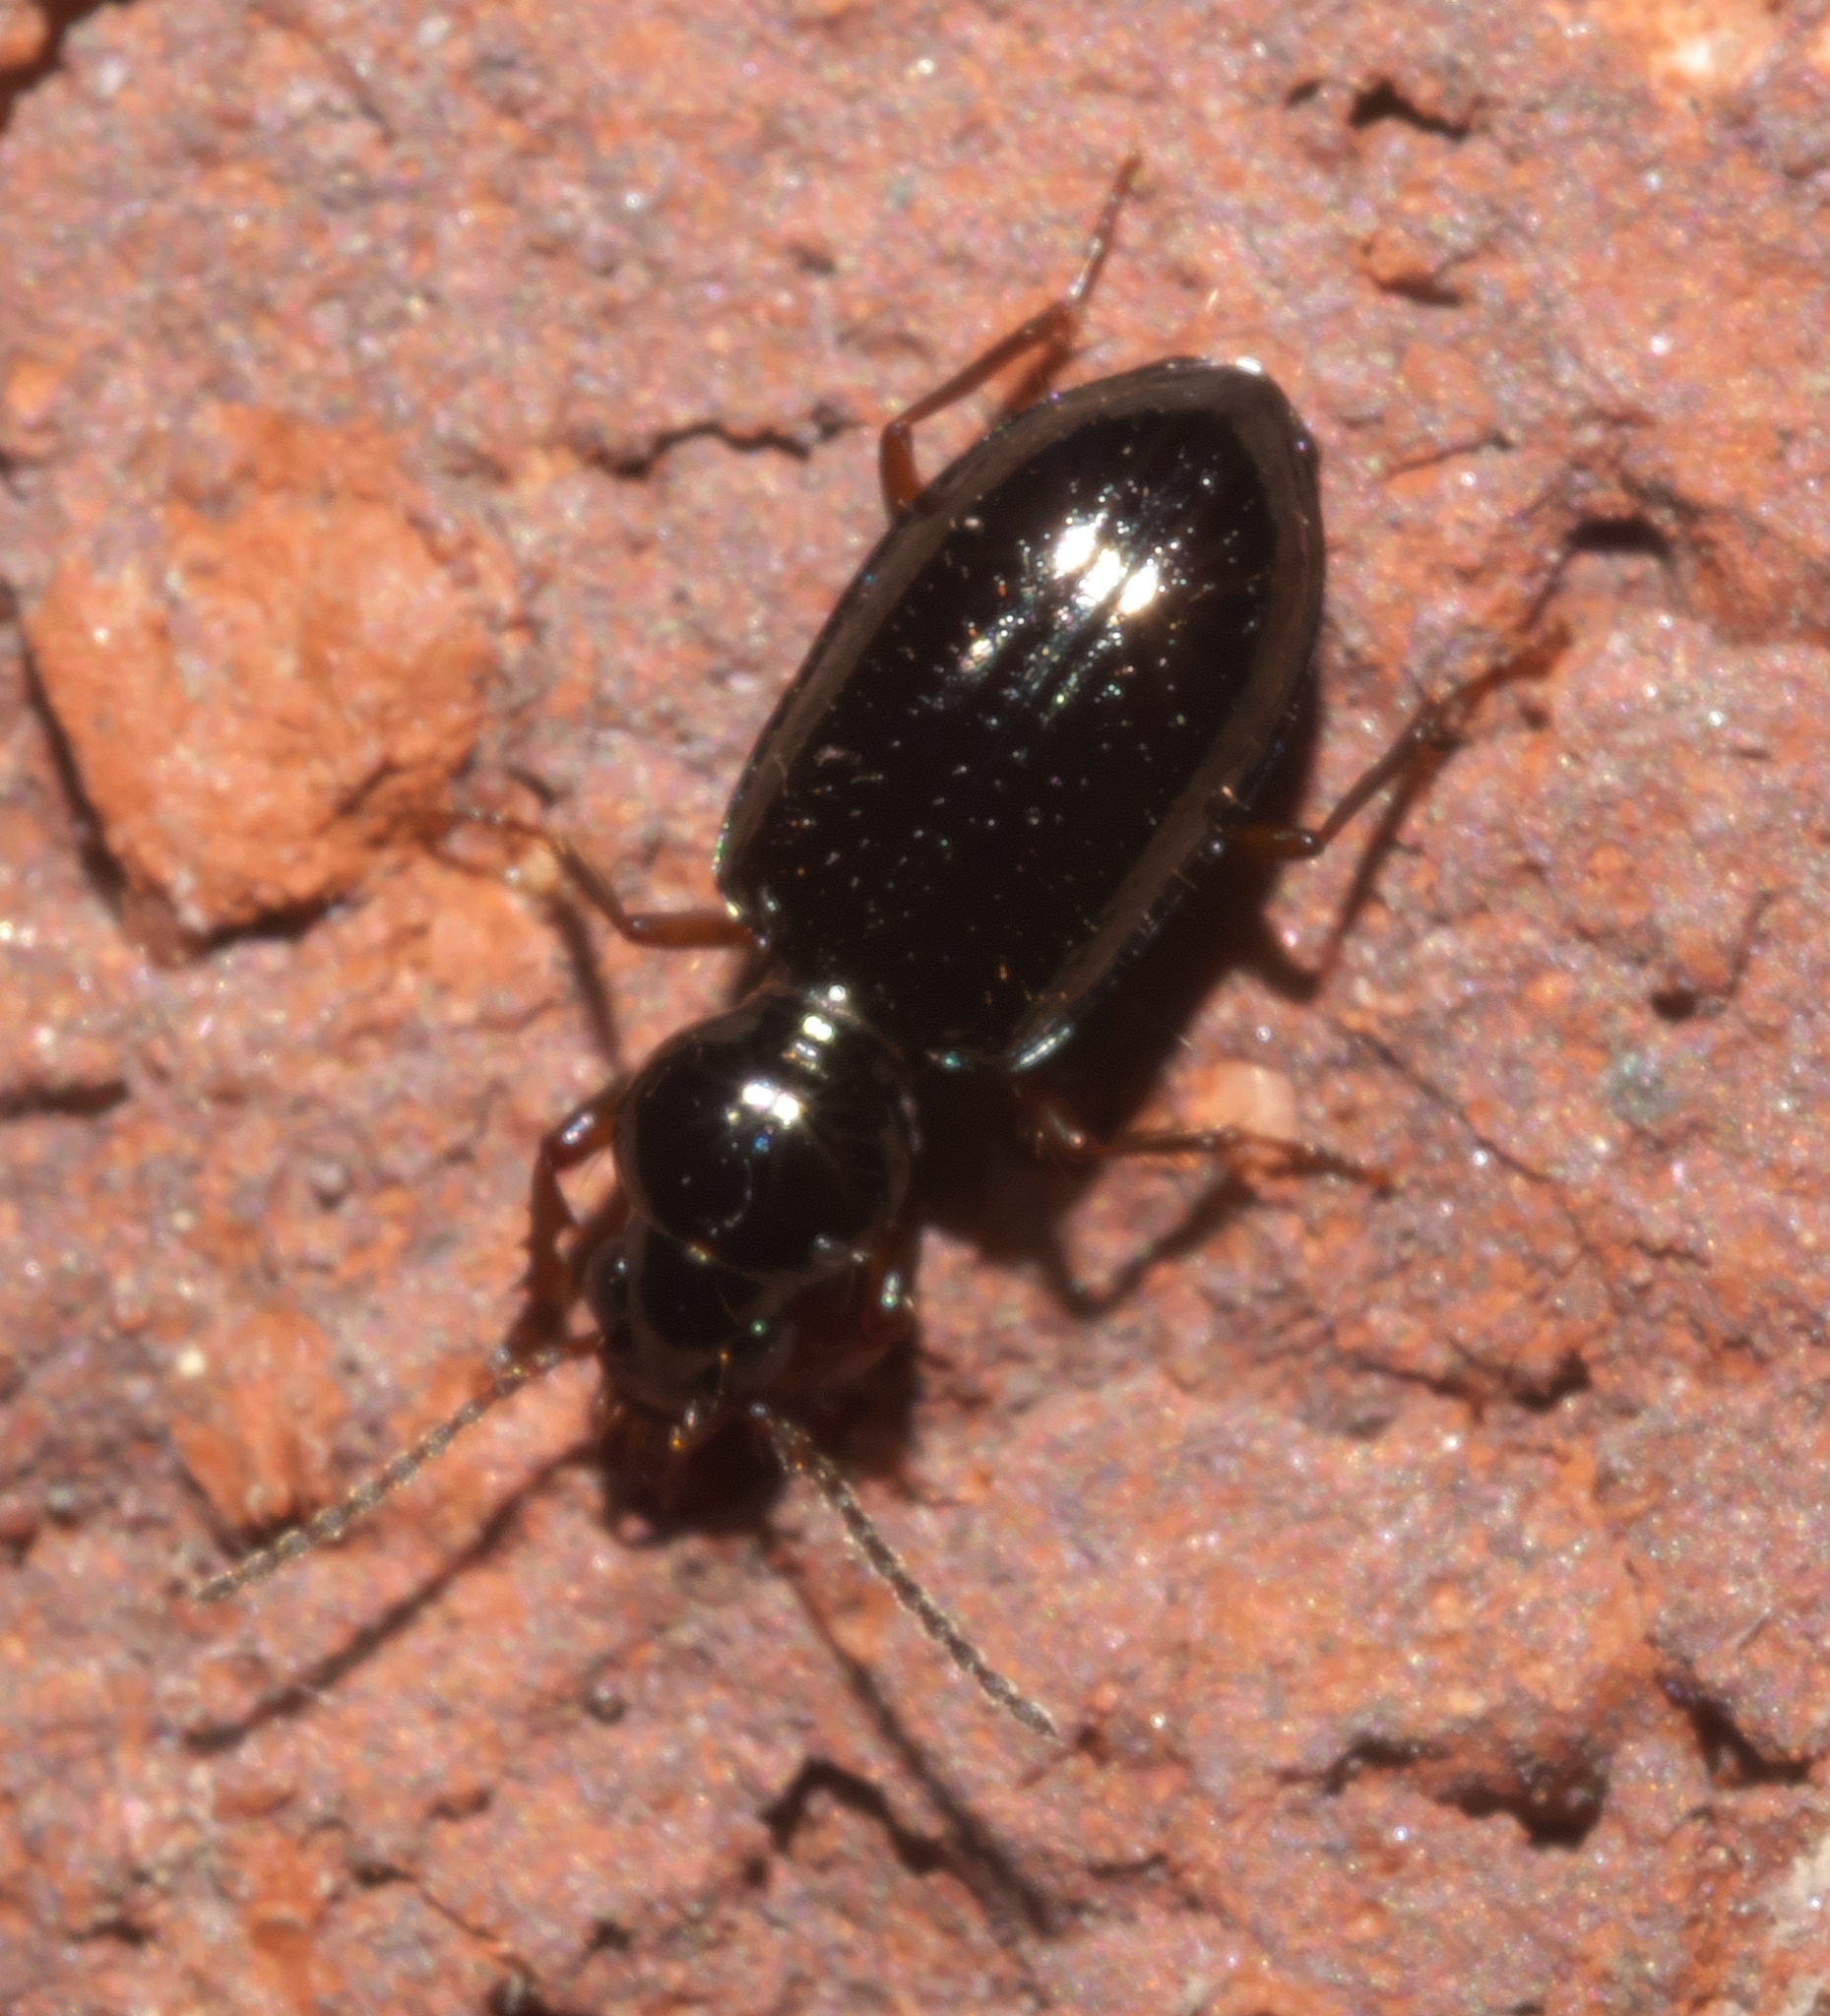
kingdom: Animalia
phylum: Arthropoda
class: Insecta
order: Coleoptera
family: Carabidae
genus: Semiardistomis
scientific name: Semiardistomis viridis
